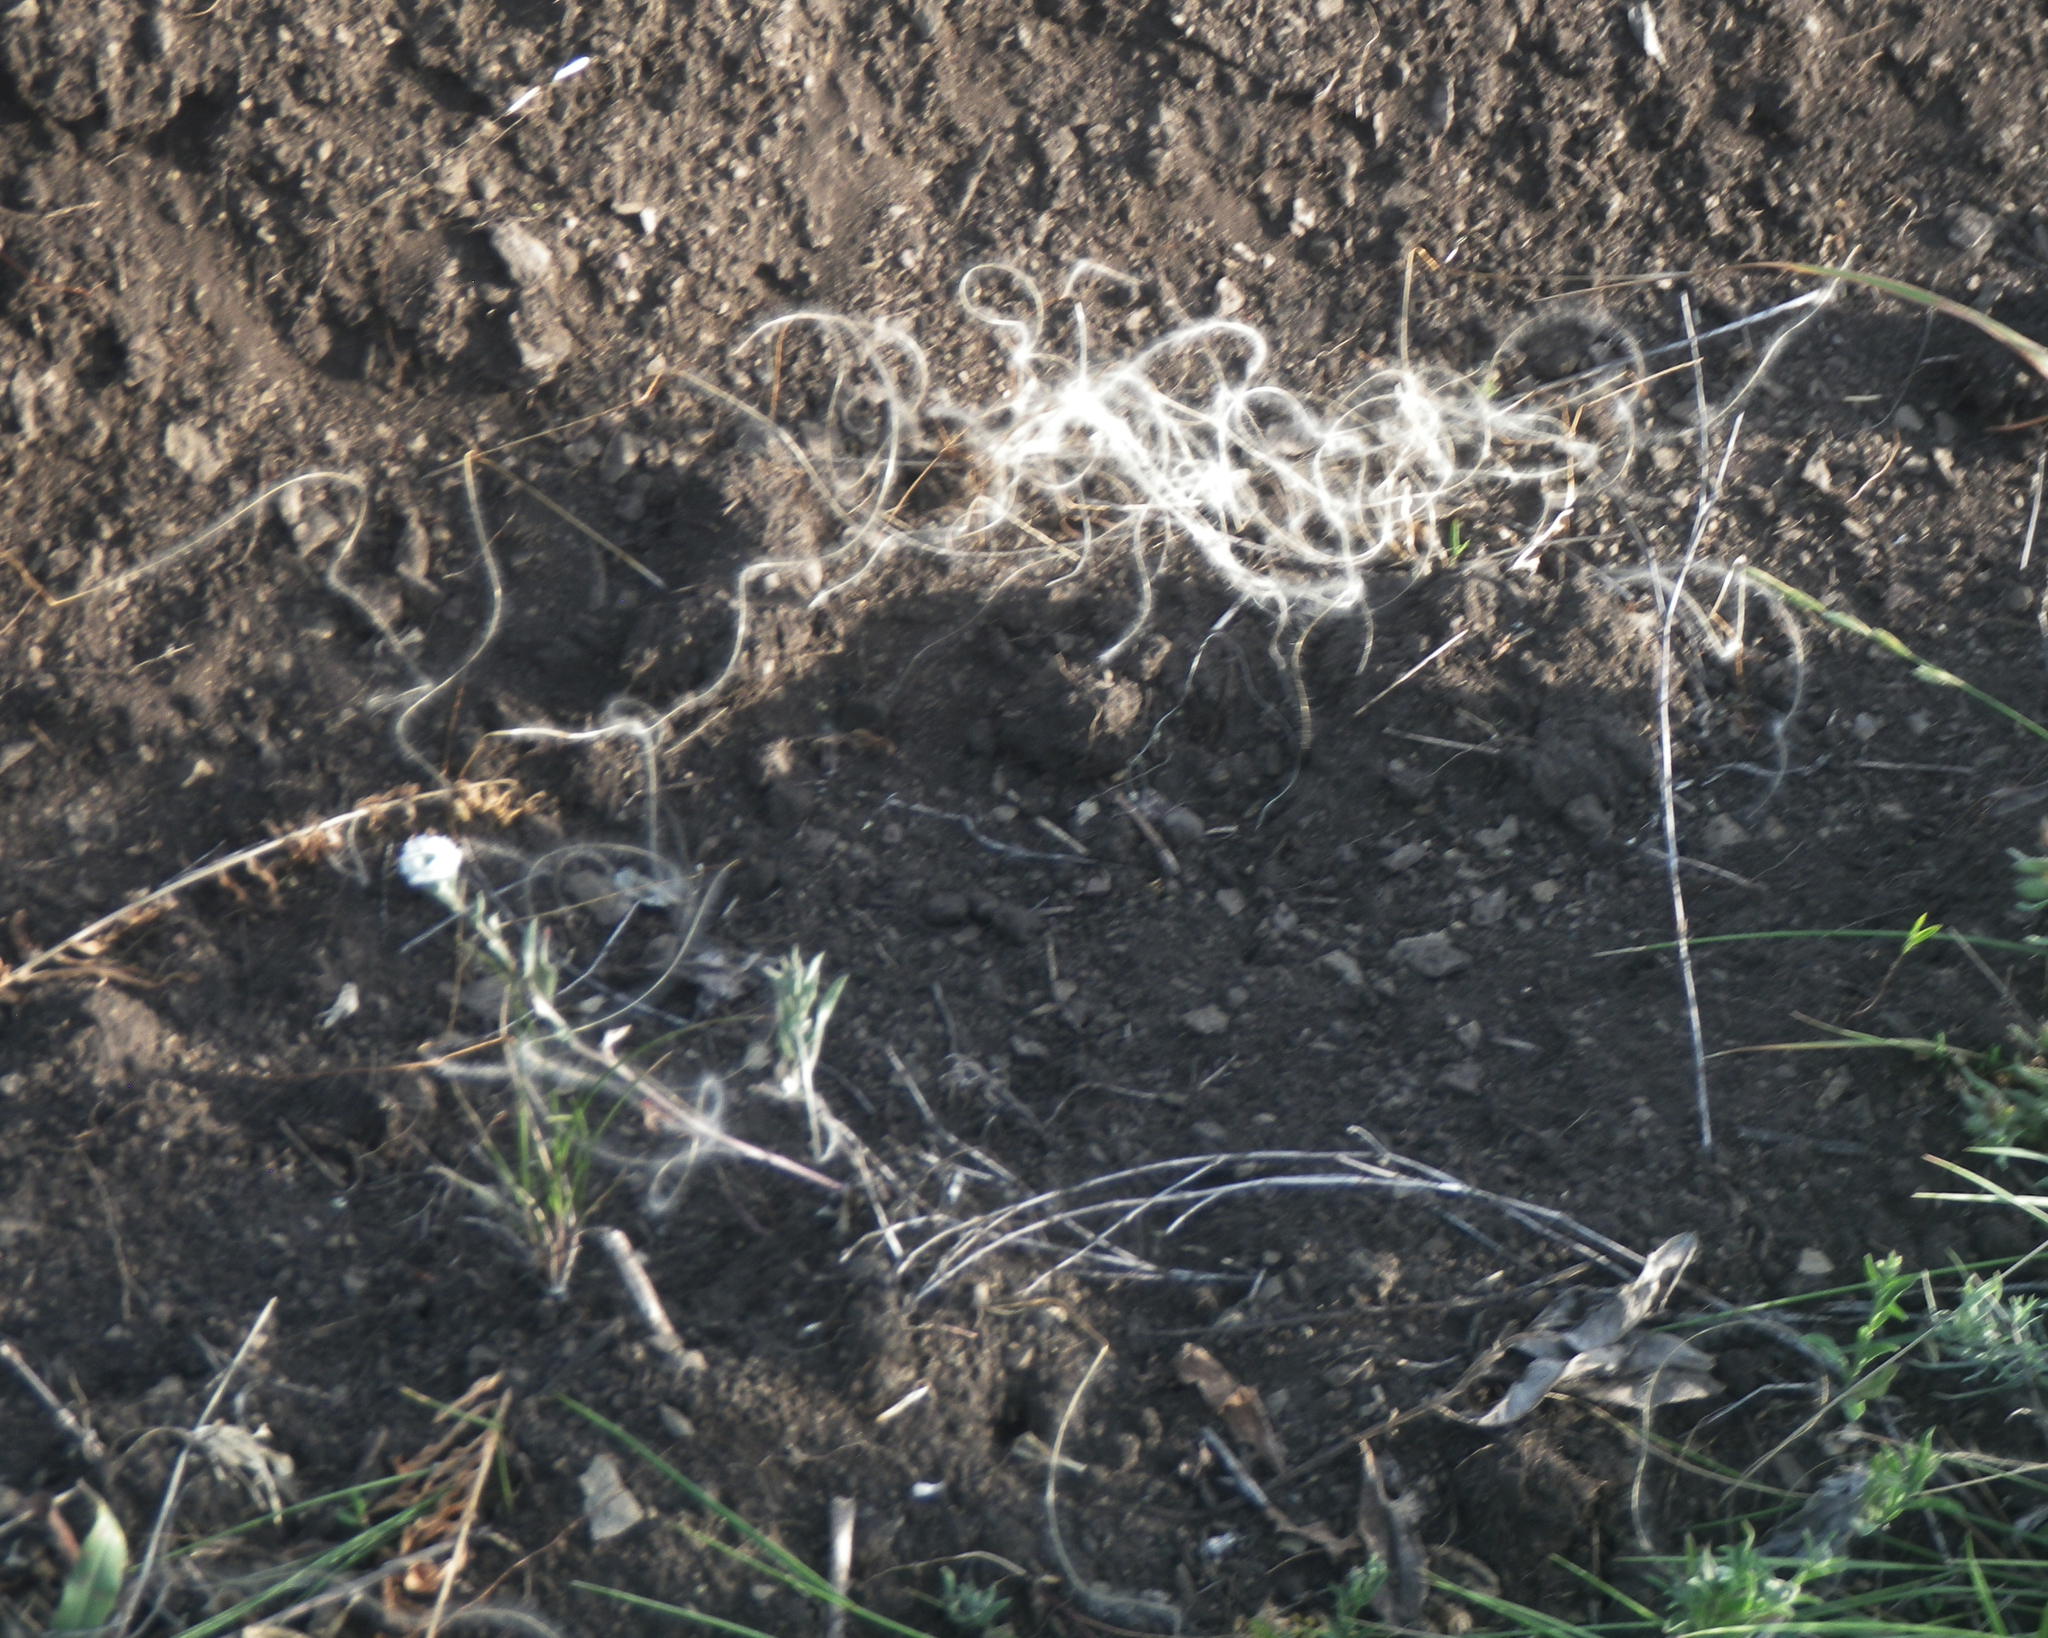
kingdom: Plantae
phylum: Tracheophyta
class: Liliopsida
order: Poales
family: Poaceae
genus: Stipa
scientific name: Stipa pennata
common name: European feather grass
